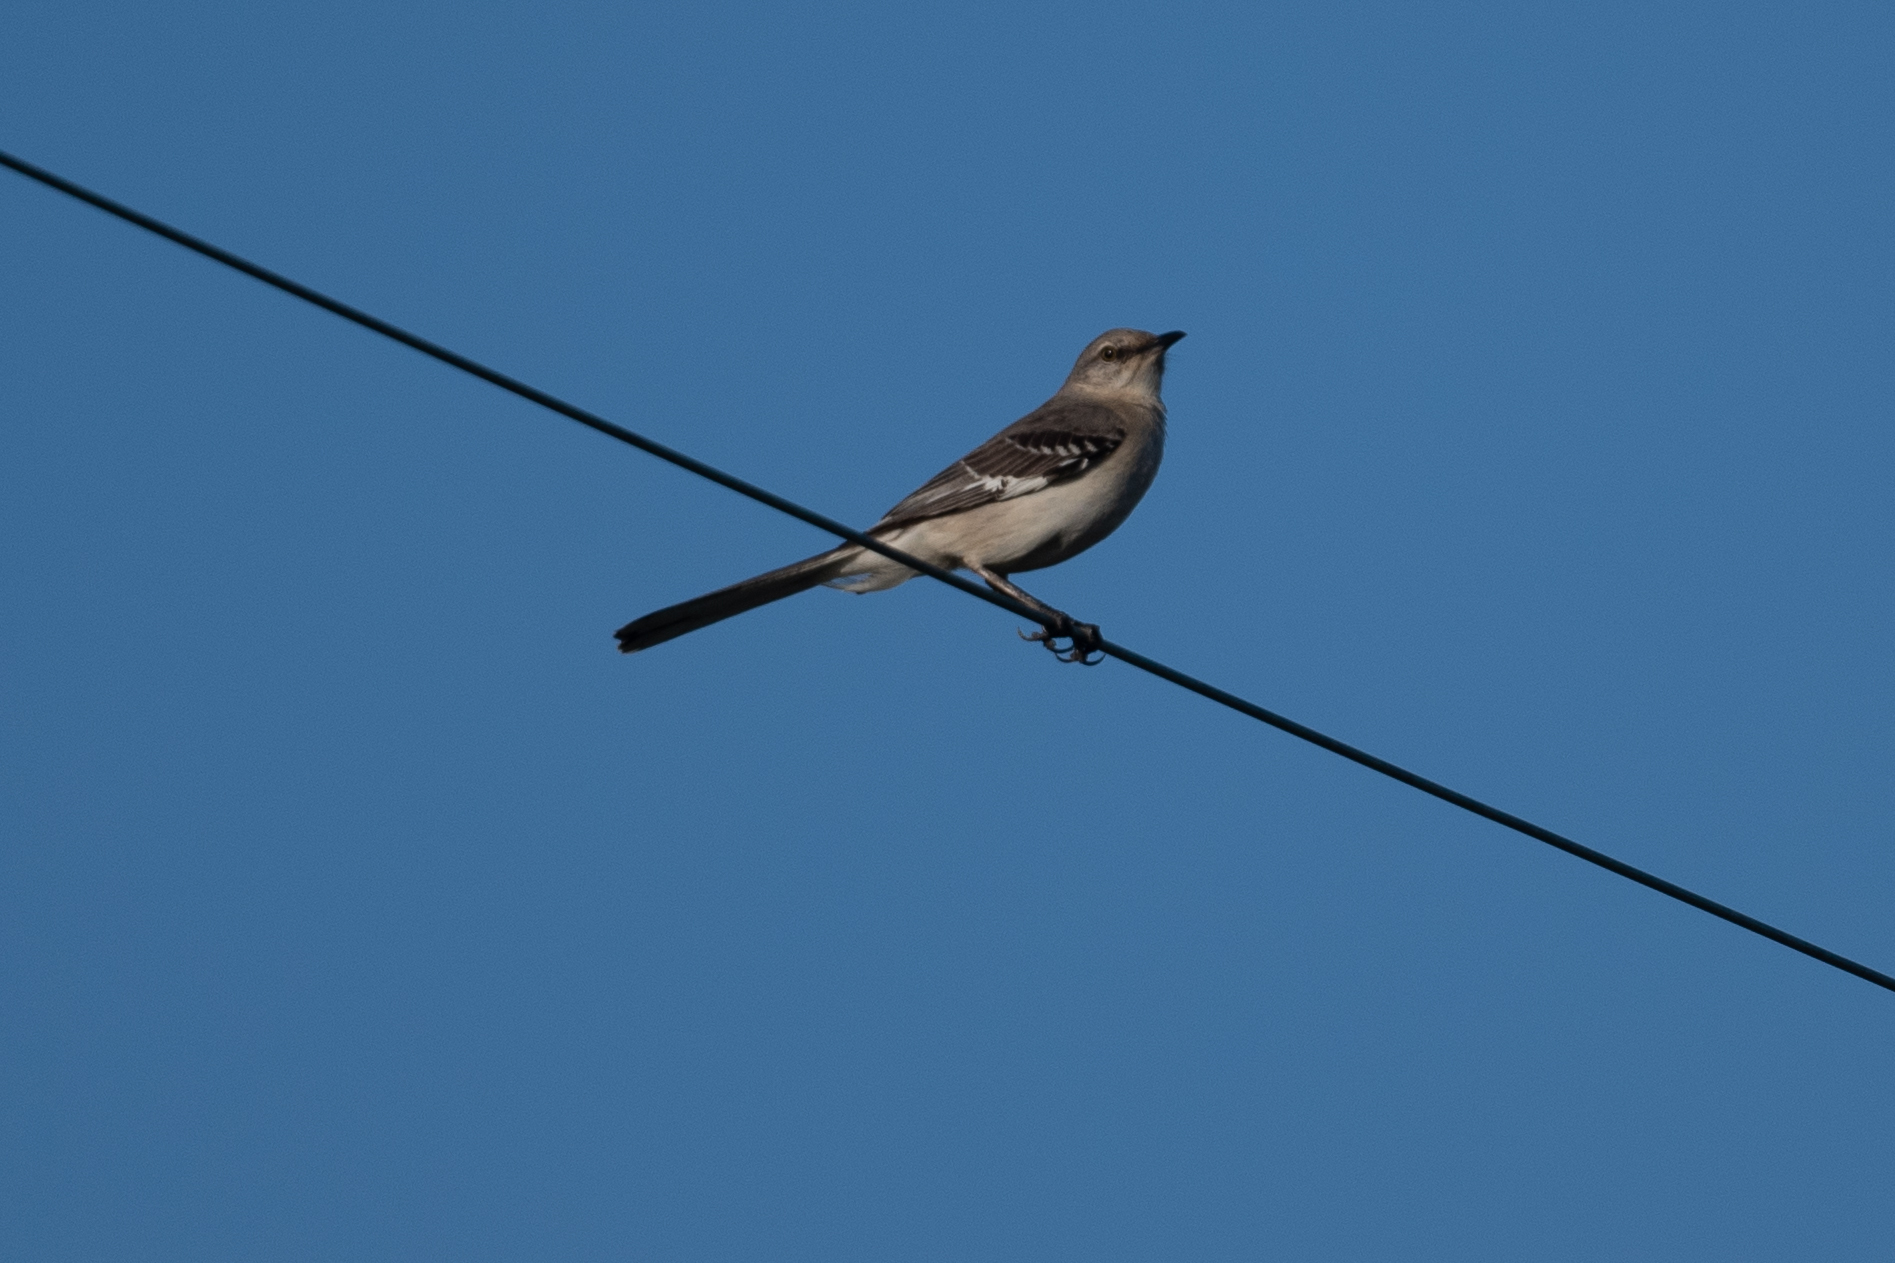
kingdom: Animalia
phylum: Chordata
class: Aves
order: Passeriformes
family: Mimidae
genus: Mimus
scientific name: Mimus polyglottos
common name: Northern mockingbird
